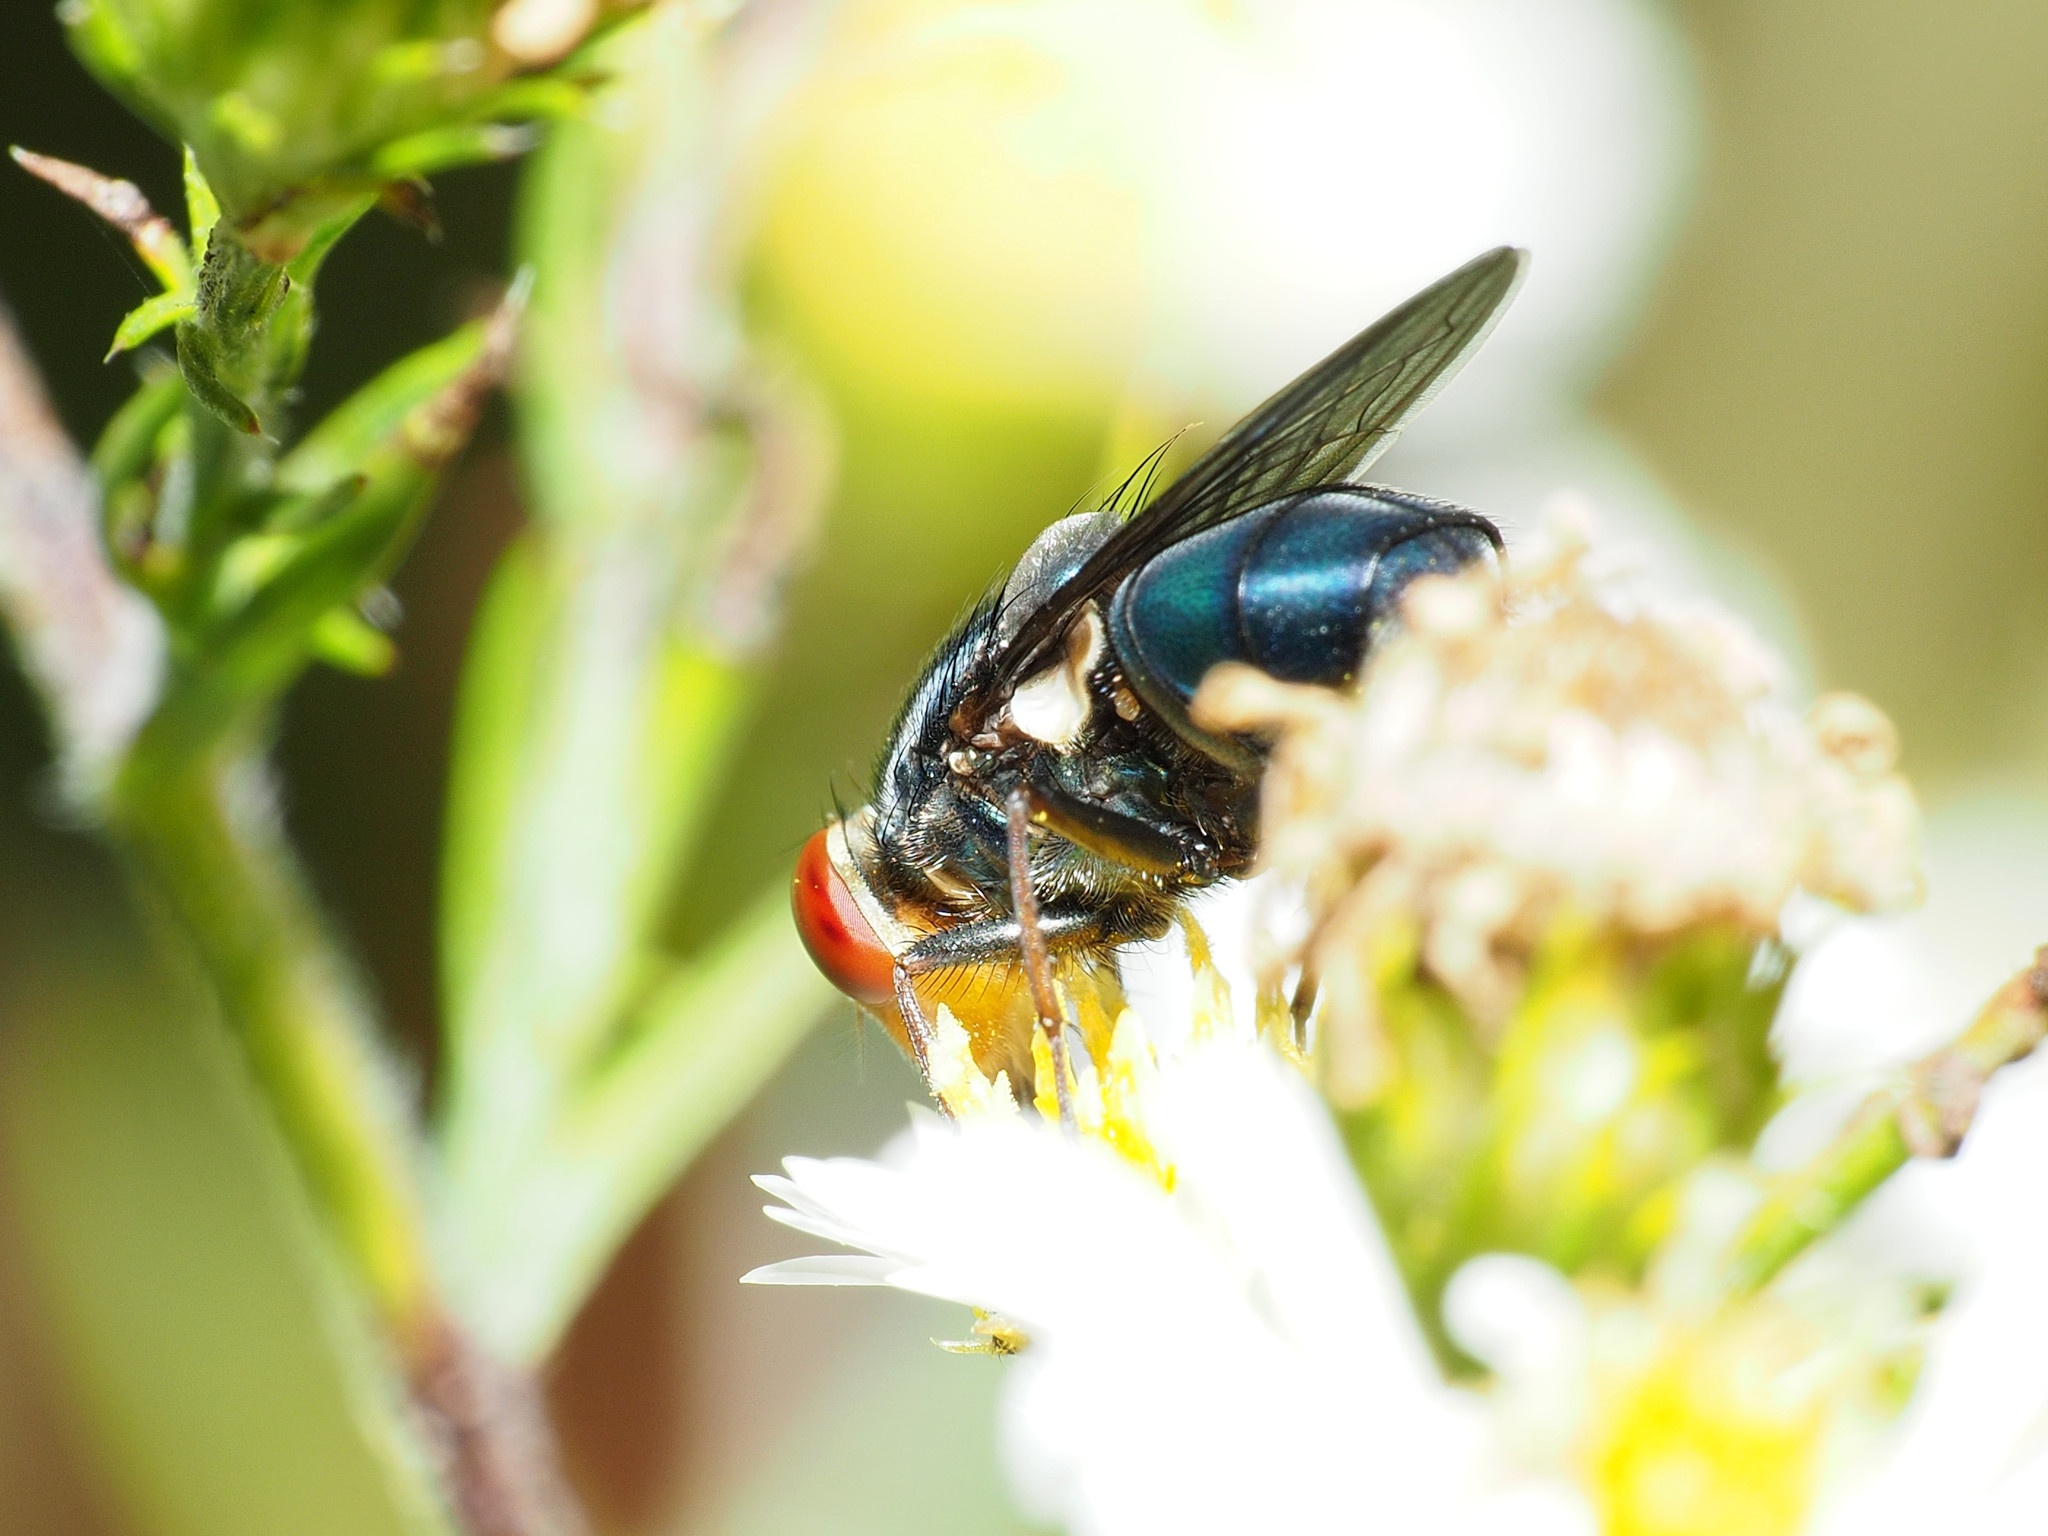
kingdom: Animalia
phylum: Arthropoda
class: Insecta
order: Diptera
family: Calliphoridae
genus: Cochliomyia
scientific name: Cochliomyia macellaria
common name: Secondary screwworm
